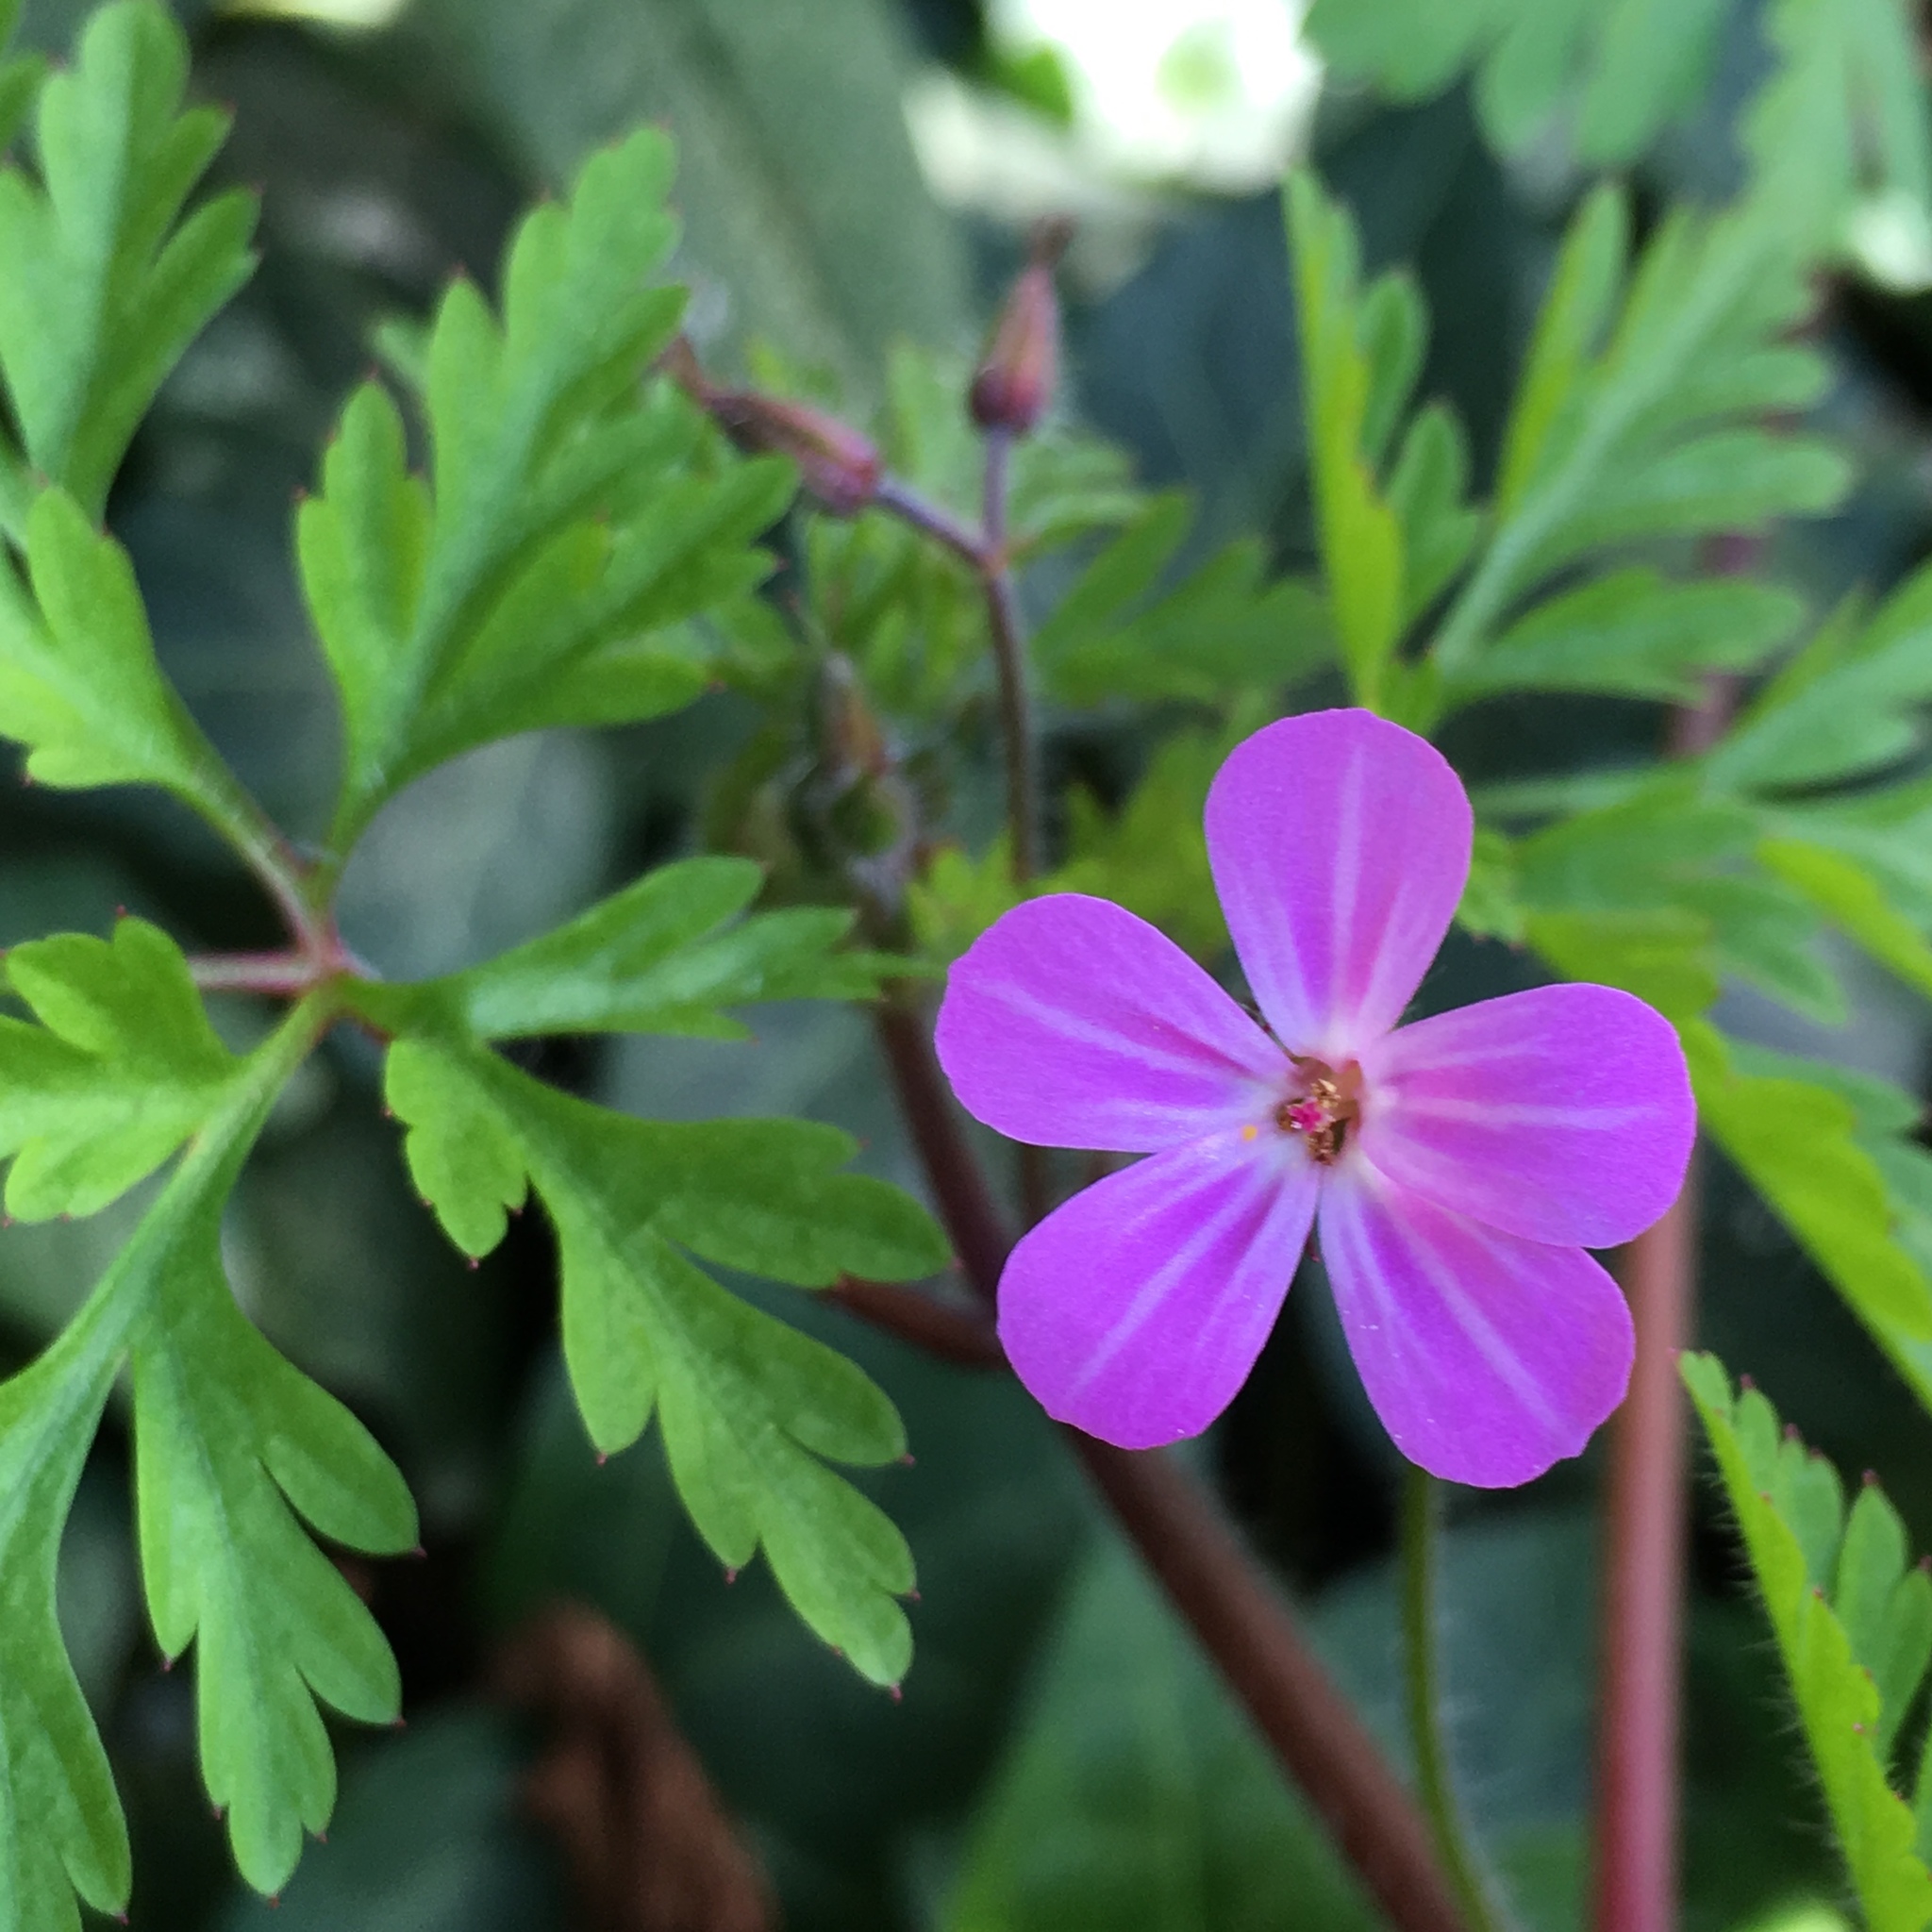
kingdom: Plantae
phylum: Tracheophyta
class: Magnoliopsida
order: Geraniales
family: Geraniaceae
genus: Geranium
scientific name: Geranium robertianum
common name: Herb-robert
